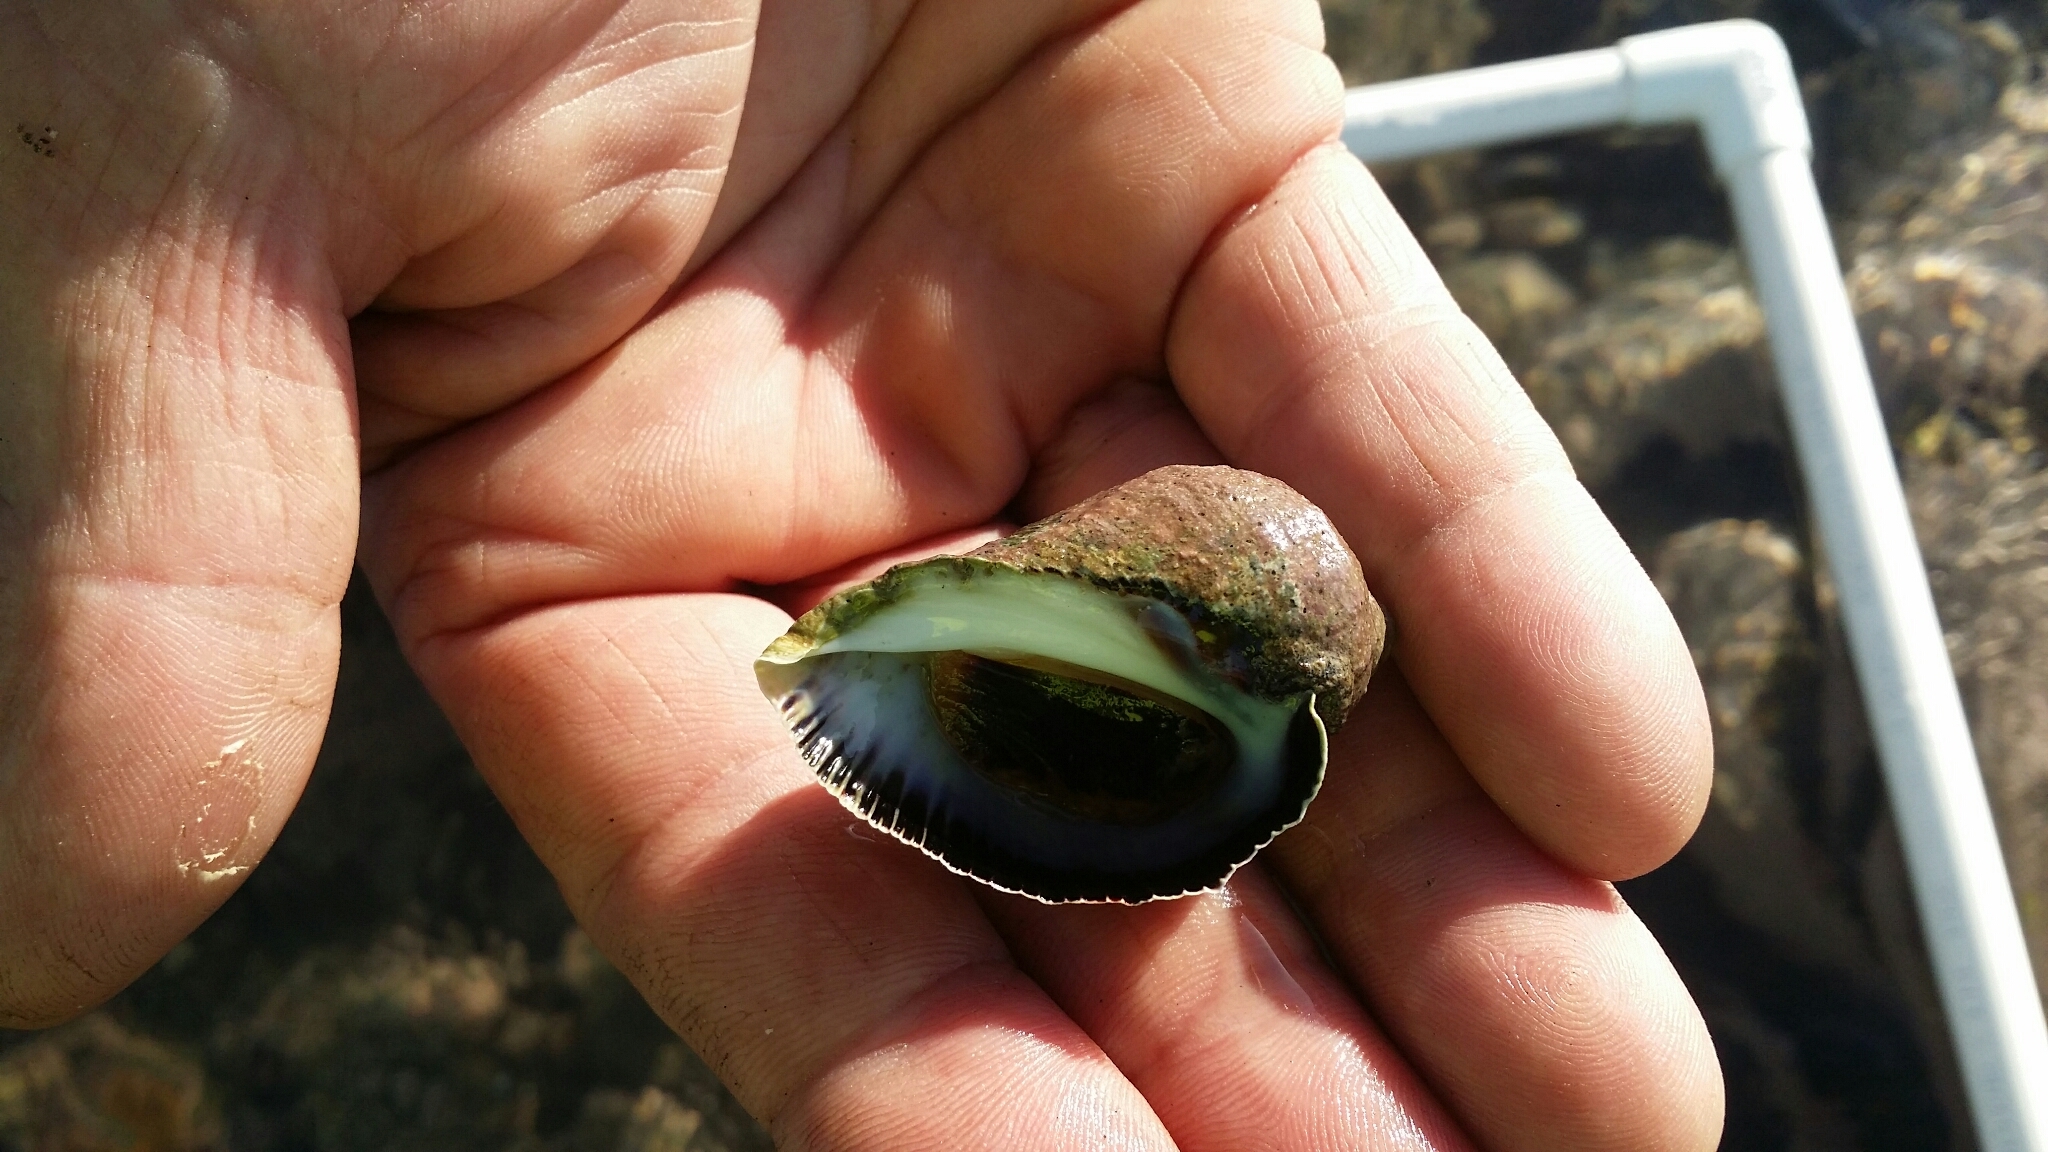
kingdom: Animalia
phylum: Mollusca
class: Gastropoda
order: Neogastropoda
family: Muricidae
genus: Haustrum
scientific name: Haustrum haustorium
